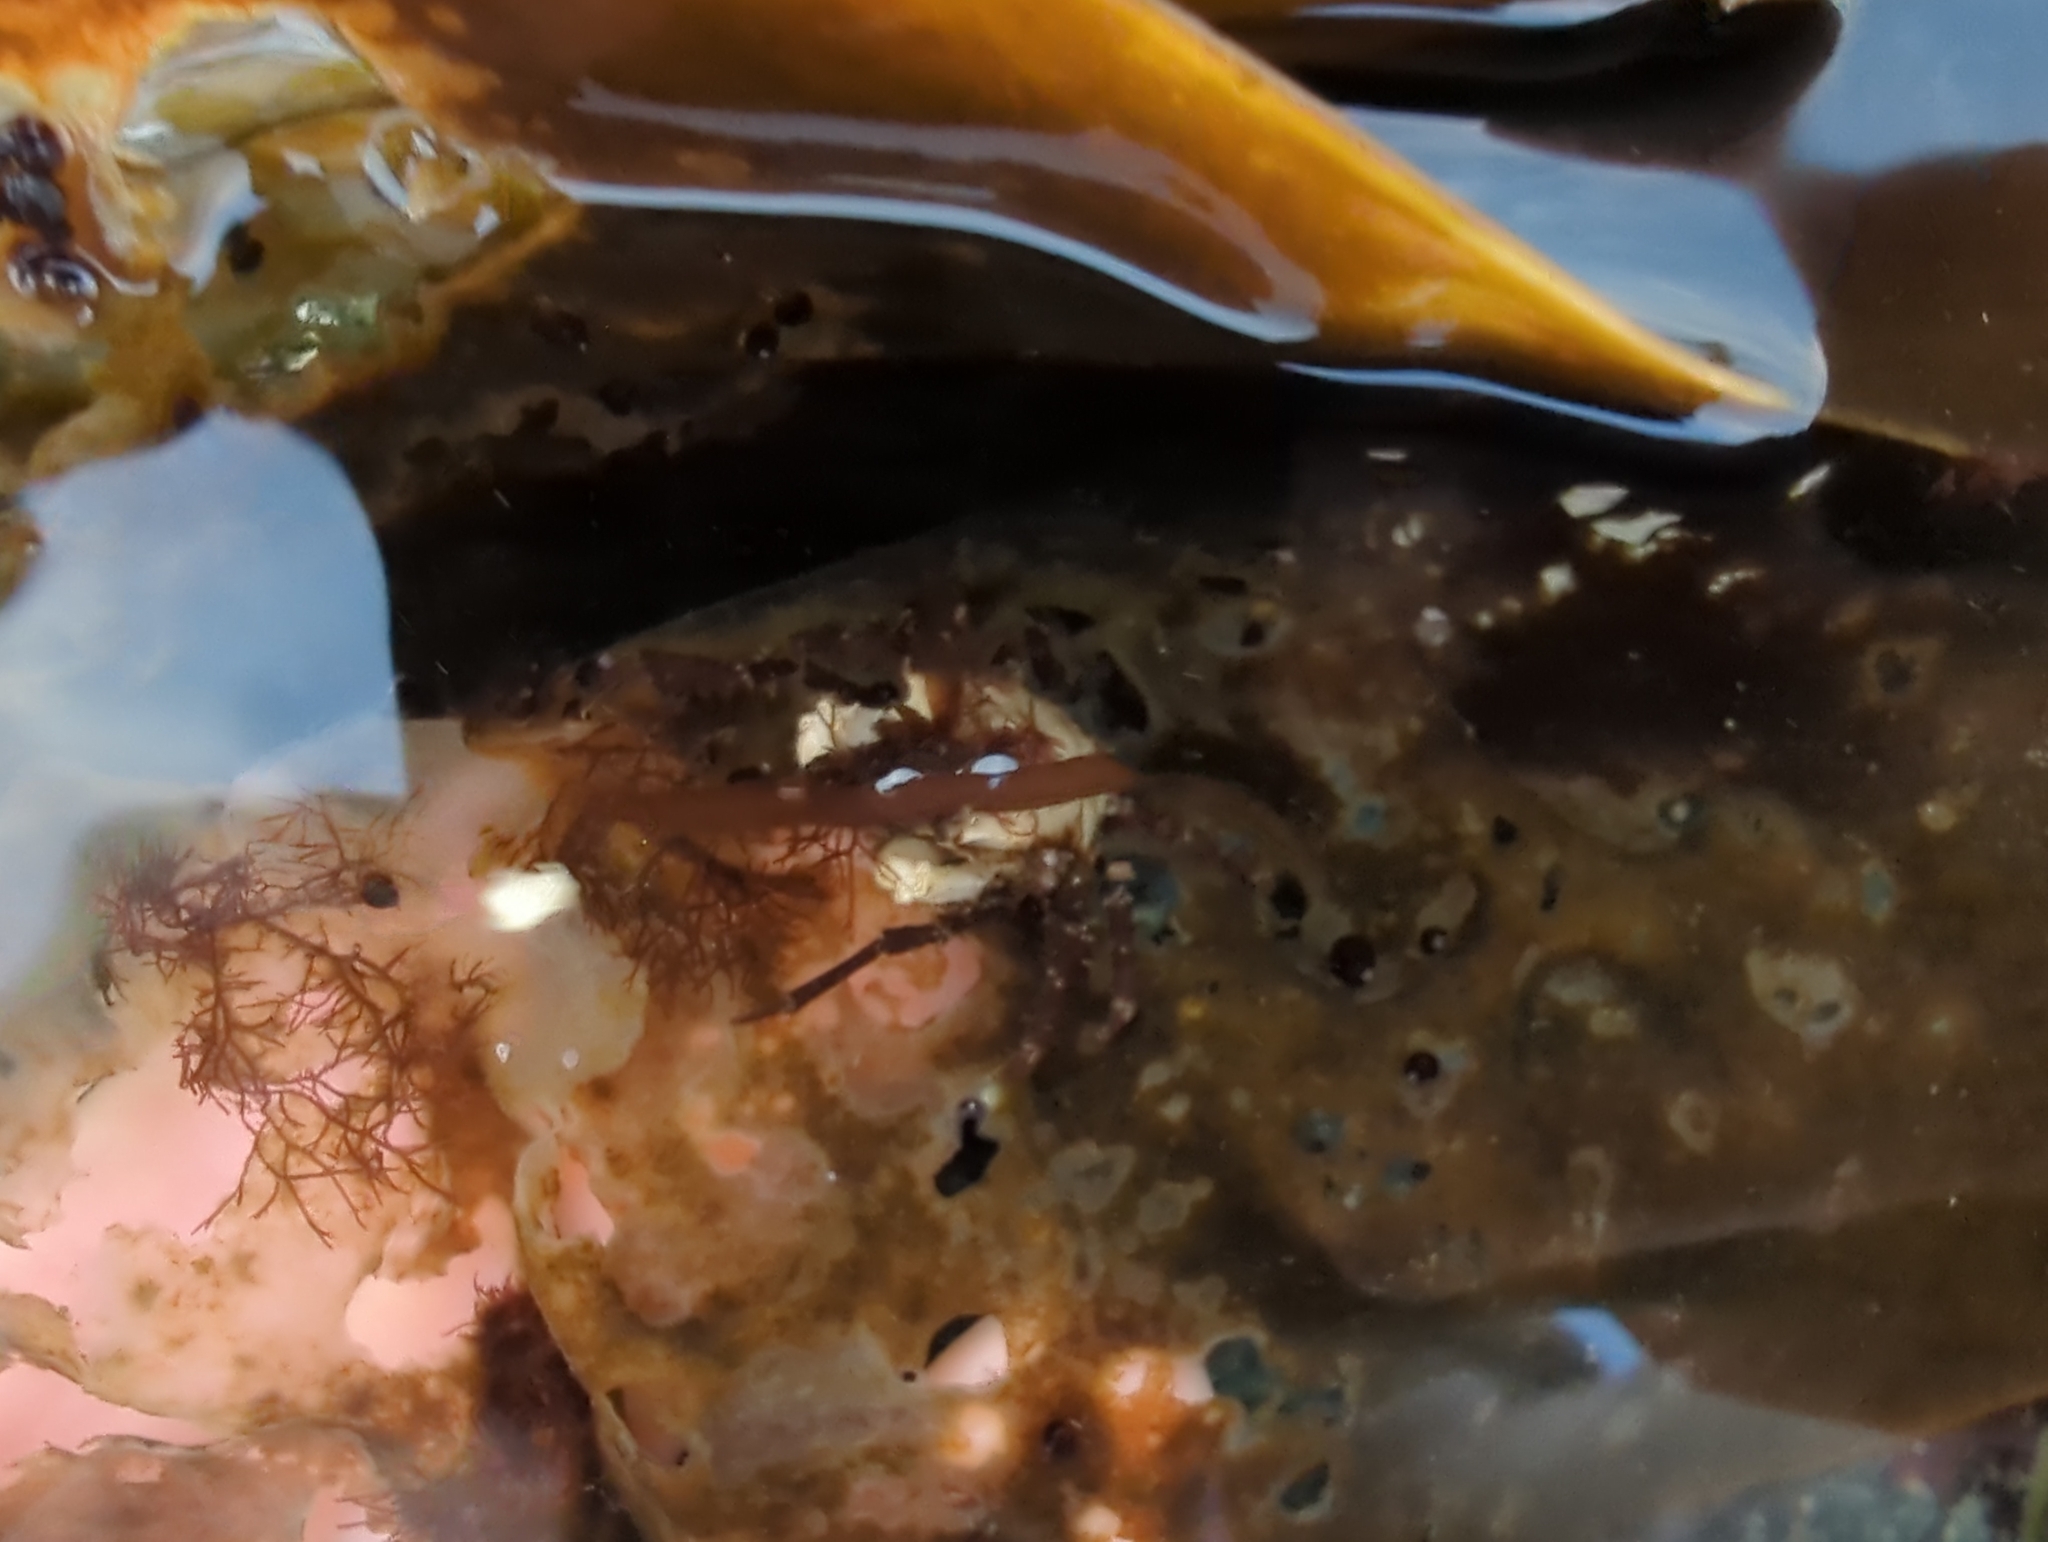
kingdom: Animalia
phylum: Arthropoda
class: Malacostraca
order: Decapoda
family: Epialtidae
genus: Pugettia
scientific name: Pugettia gracilis
